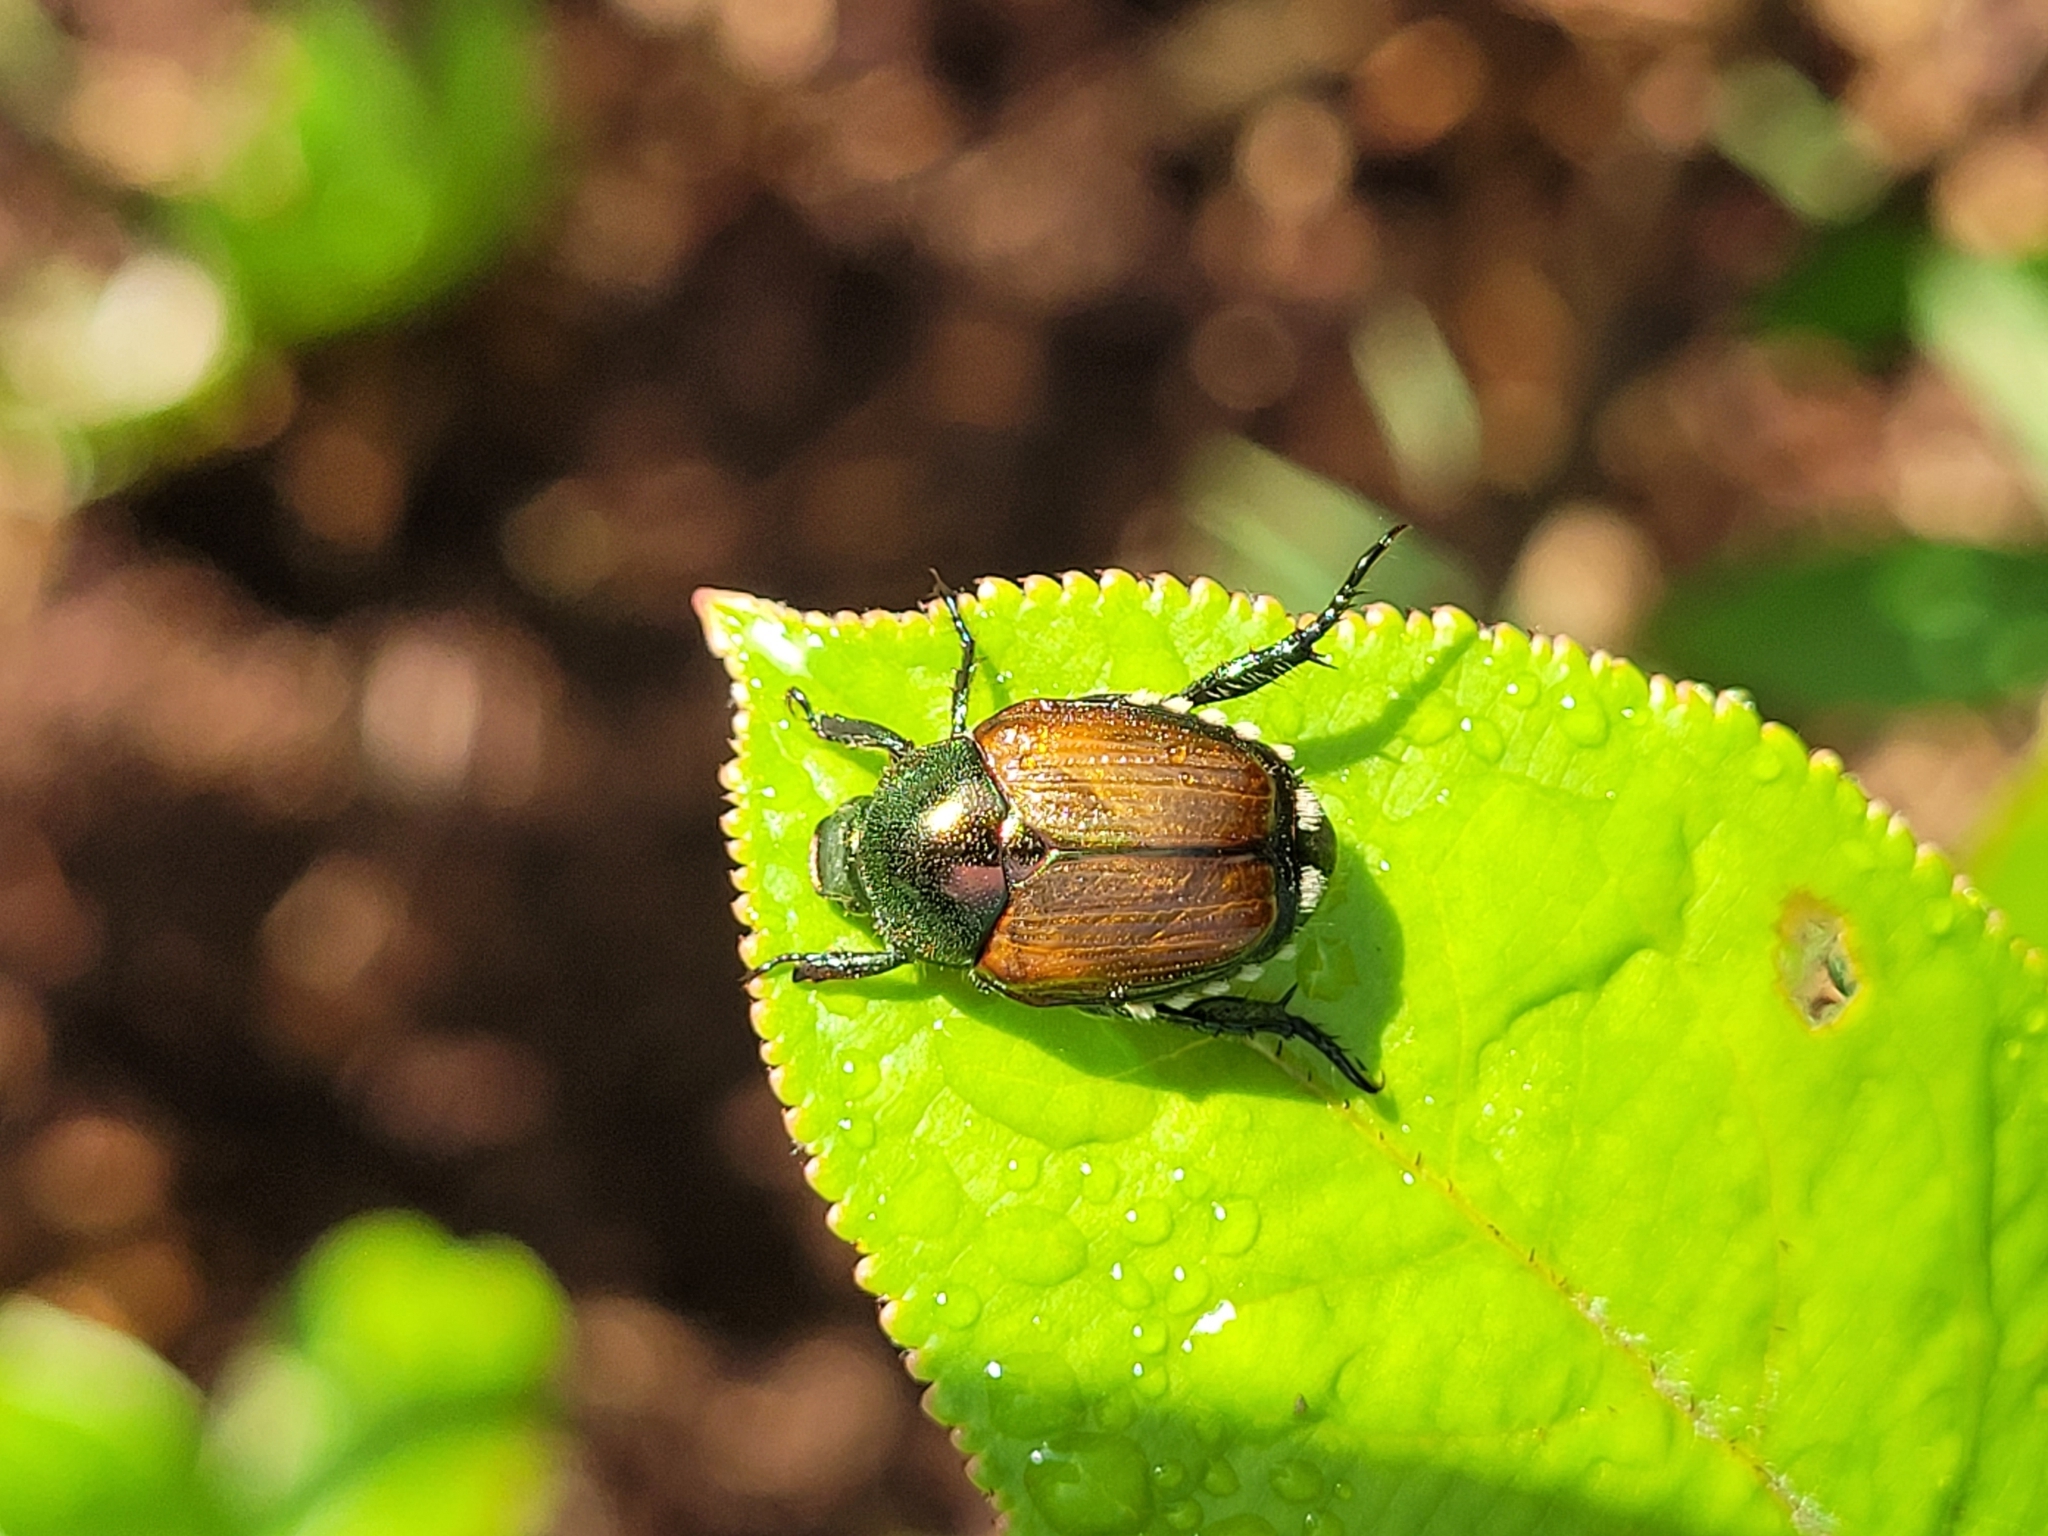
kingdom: Animalia
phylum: Arthropoda
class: Insecta
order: Coleoptera
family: Scarabaeidae
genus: Popillia
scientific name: Popillia japonica
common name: Japanese beetle
